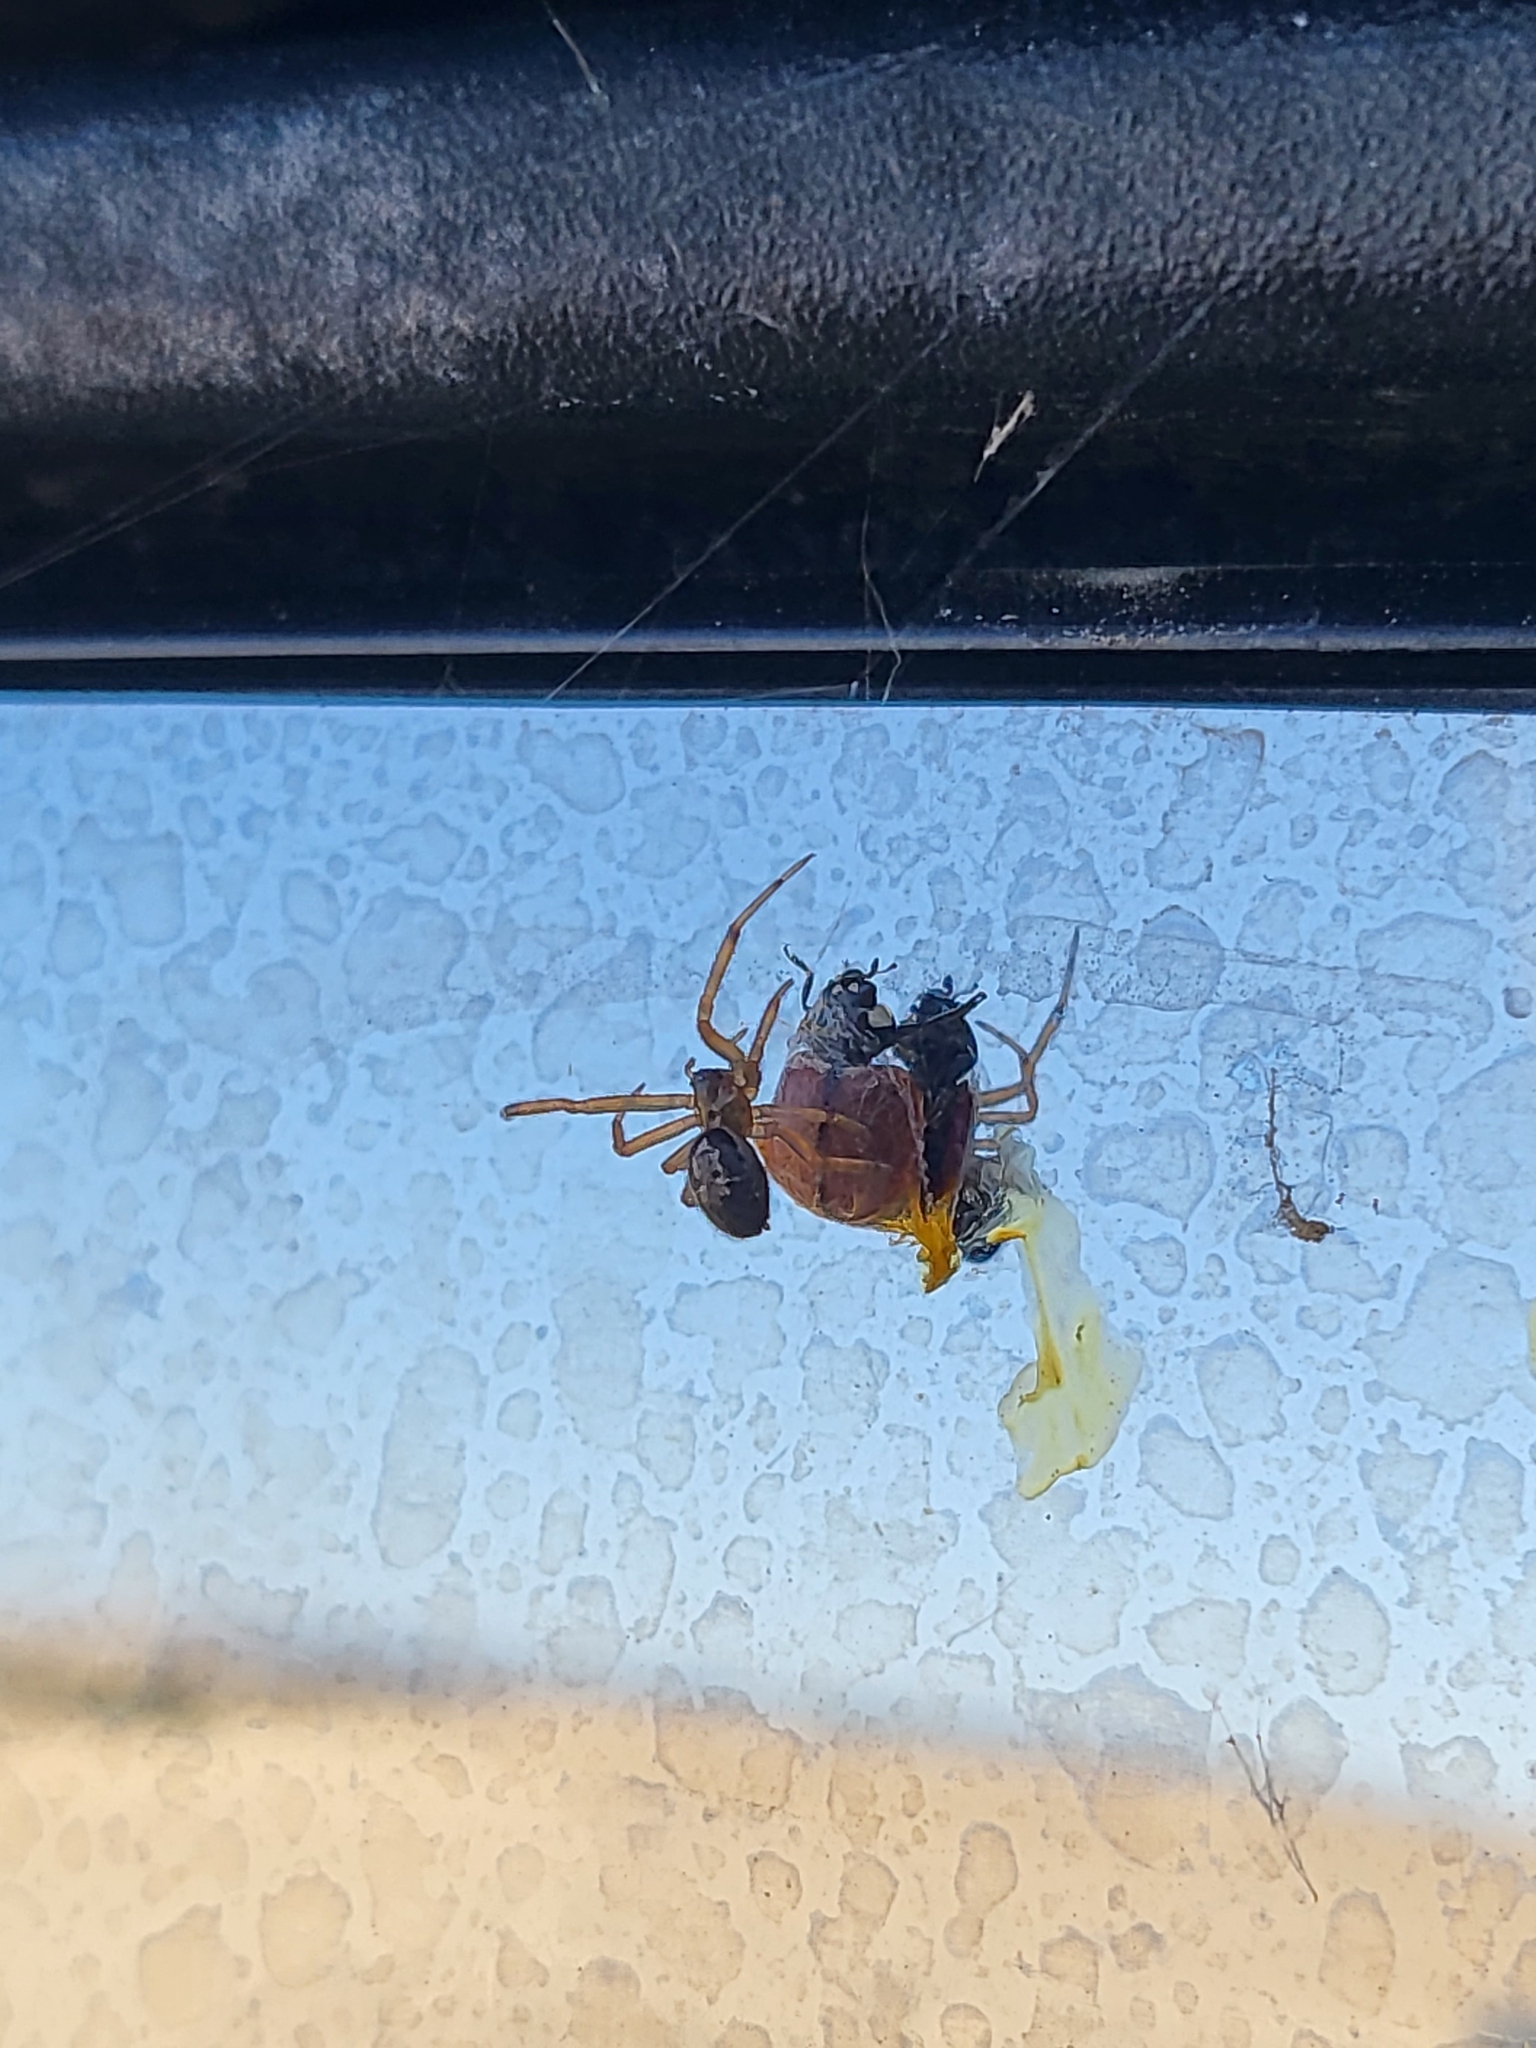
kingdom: Animalia
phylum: Arthropoda
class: Arachnida
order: Araneae
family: Theridiidae
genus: Steatoda
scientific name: Steatoda nobilis
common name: Cobweb weaver
